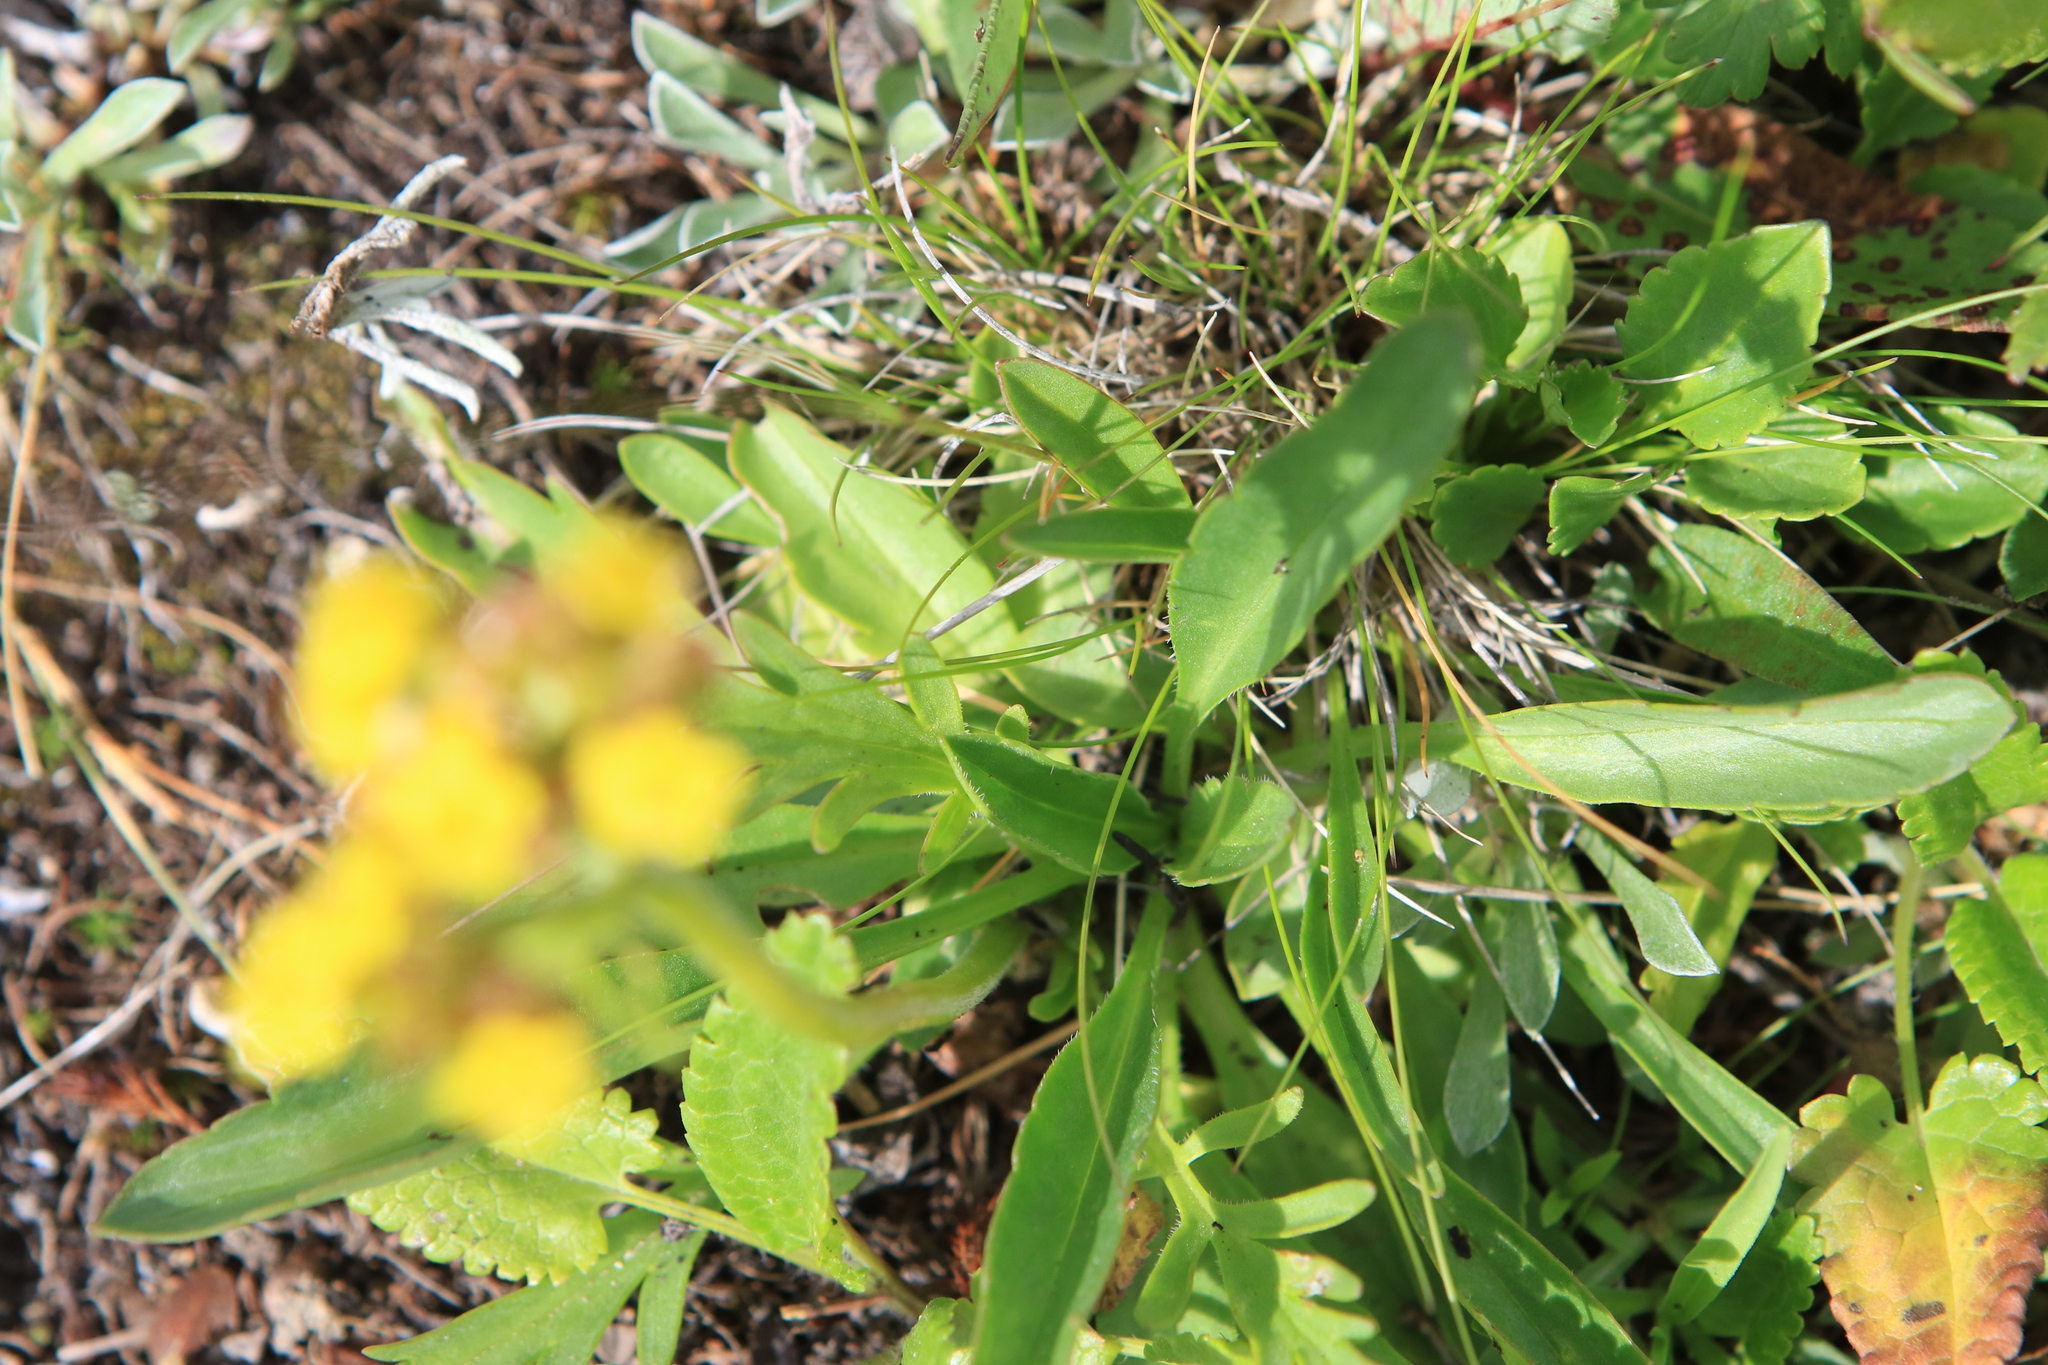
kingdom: Plantae
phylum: Tracheophyta
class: Magnoliopsida
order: Dipsacales
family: Caprifoliaceae
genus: Patrinia
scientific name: Patrinia sibirica
